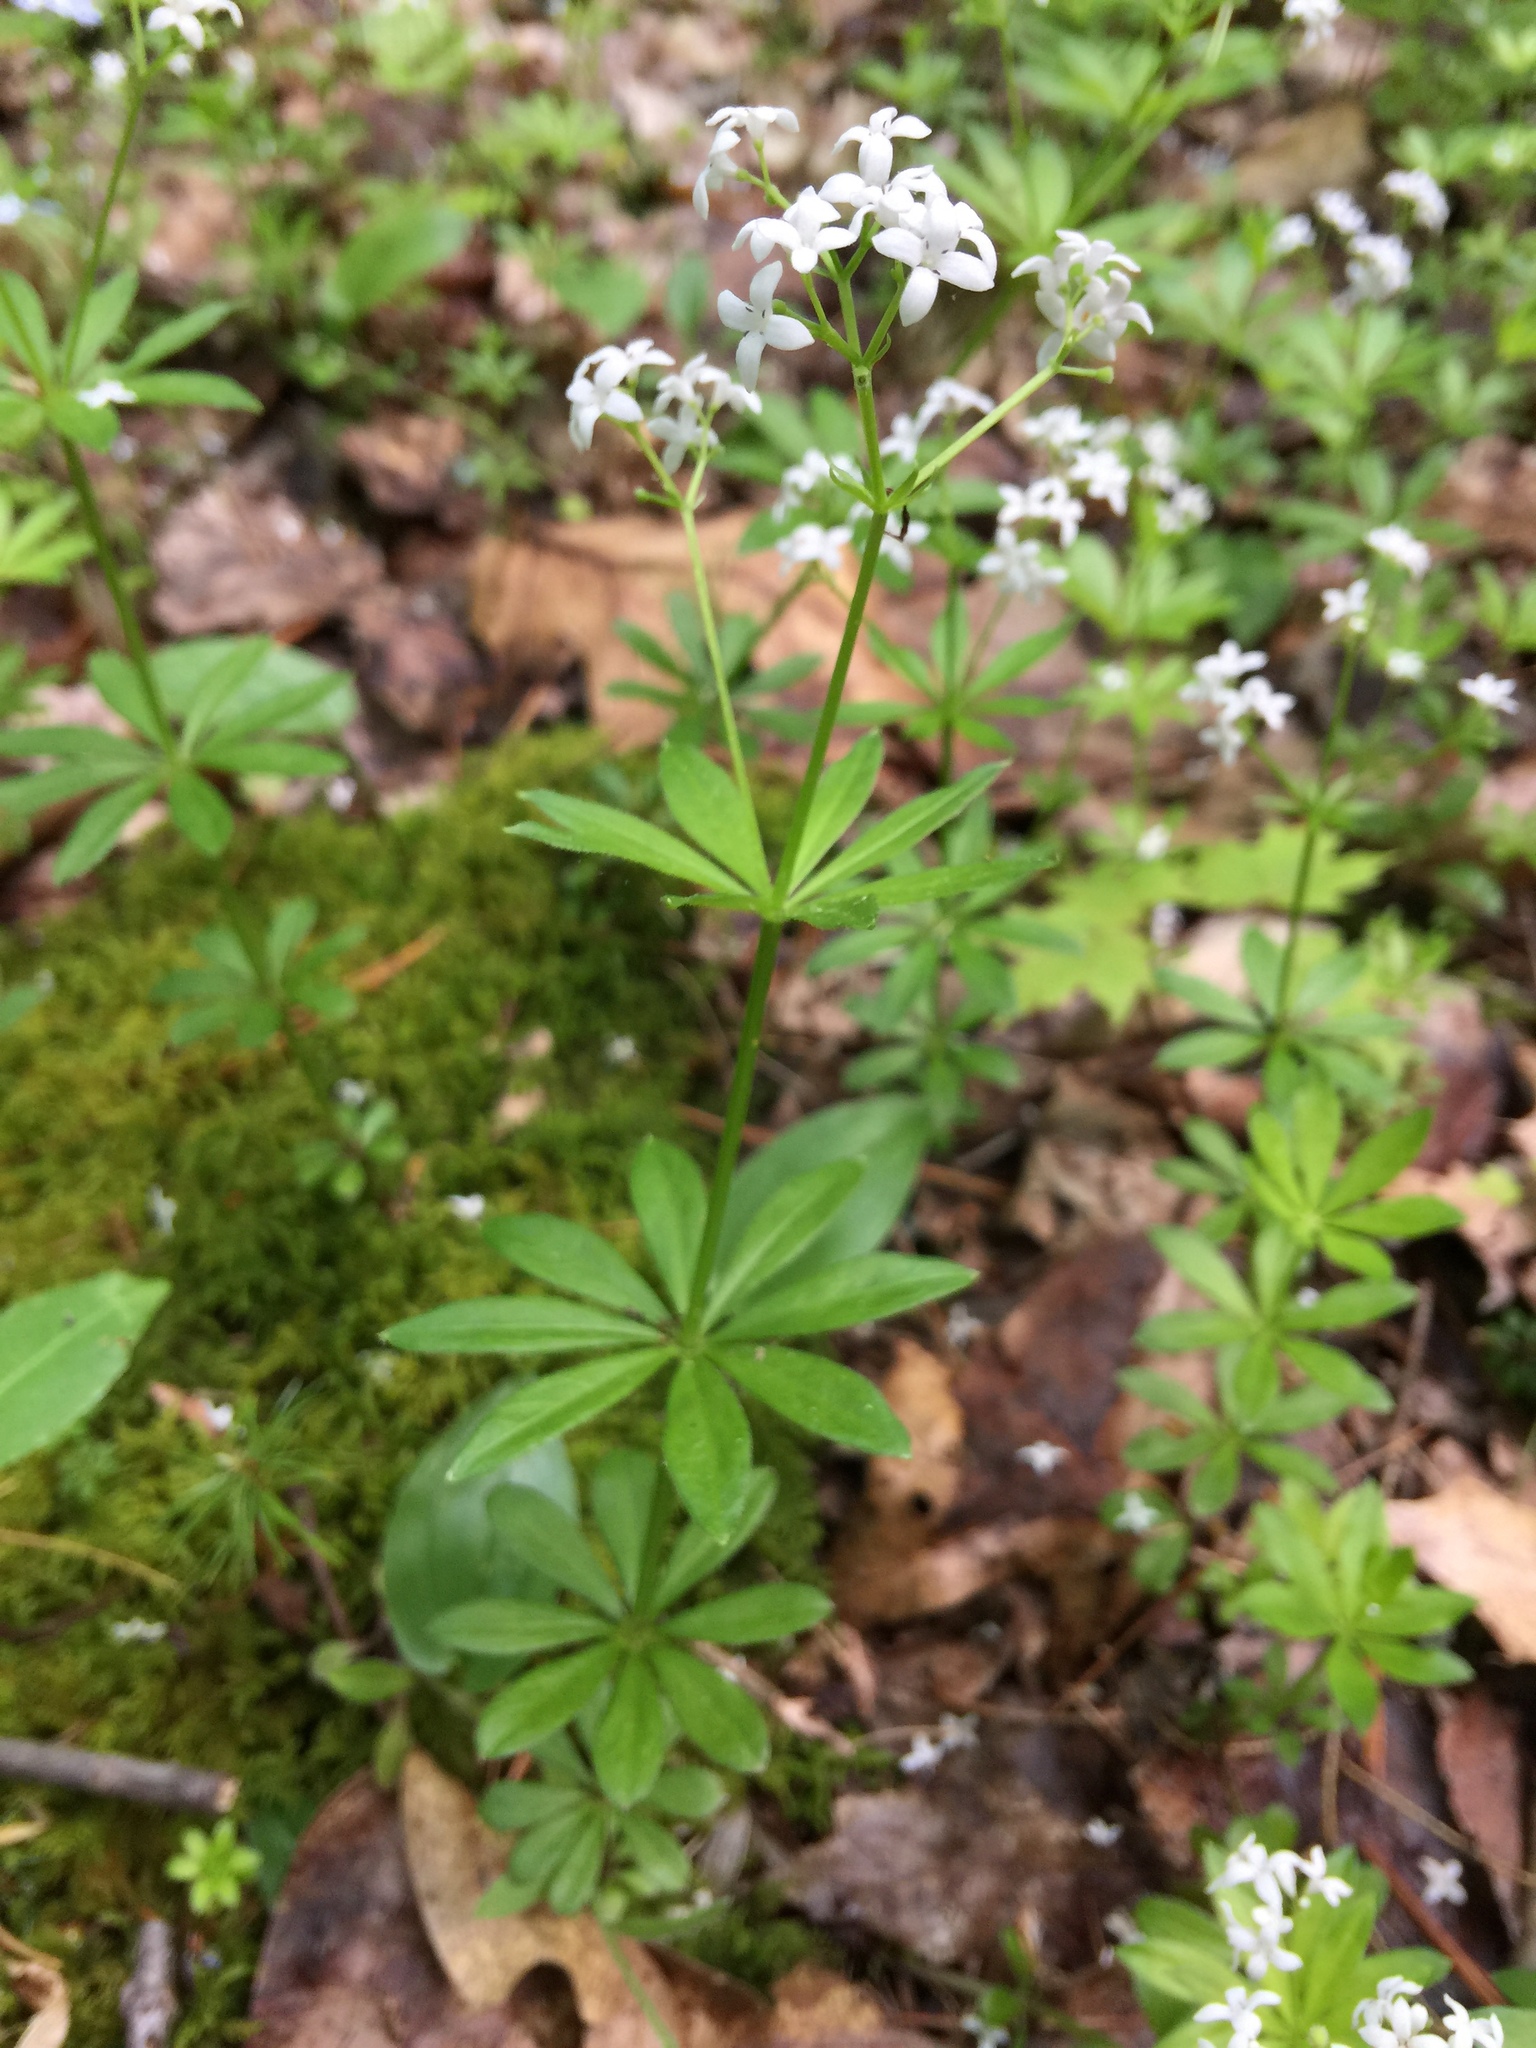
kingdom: Plantae
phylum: Tracheophyta
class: Magnoliopsida
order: Gentianales
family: Rubiaceae
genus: Galium
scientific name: Galium odoratum
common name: Sweet woodruff
